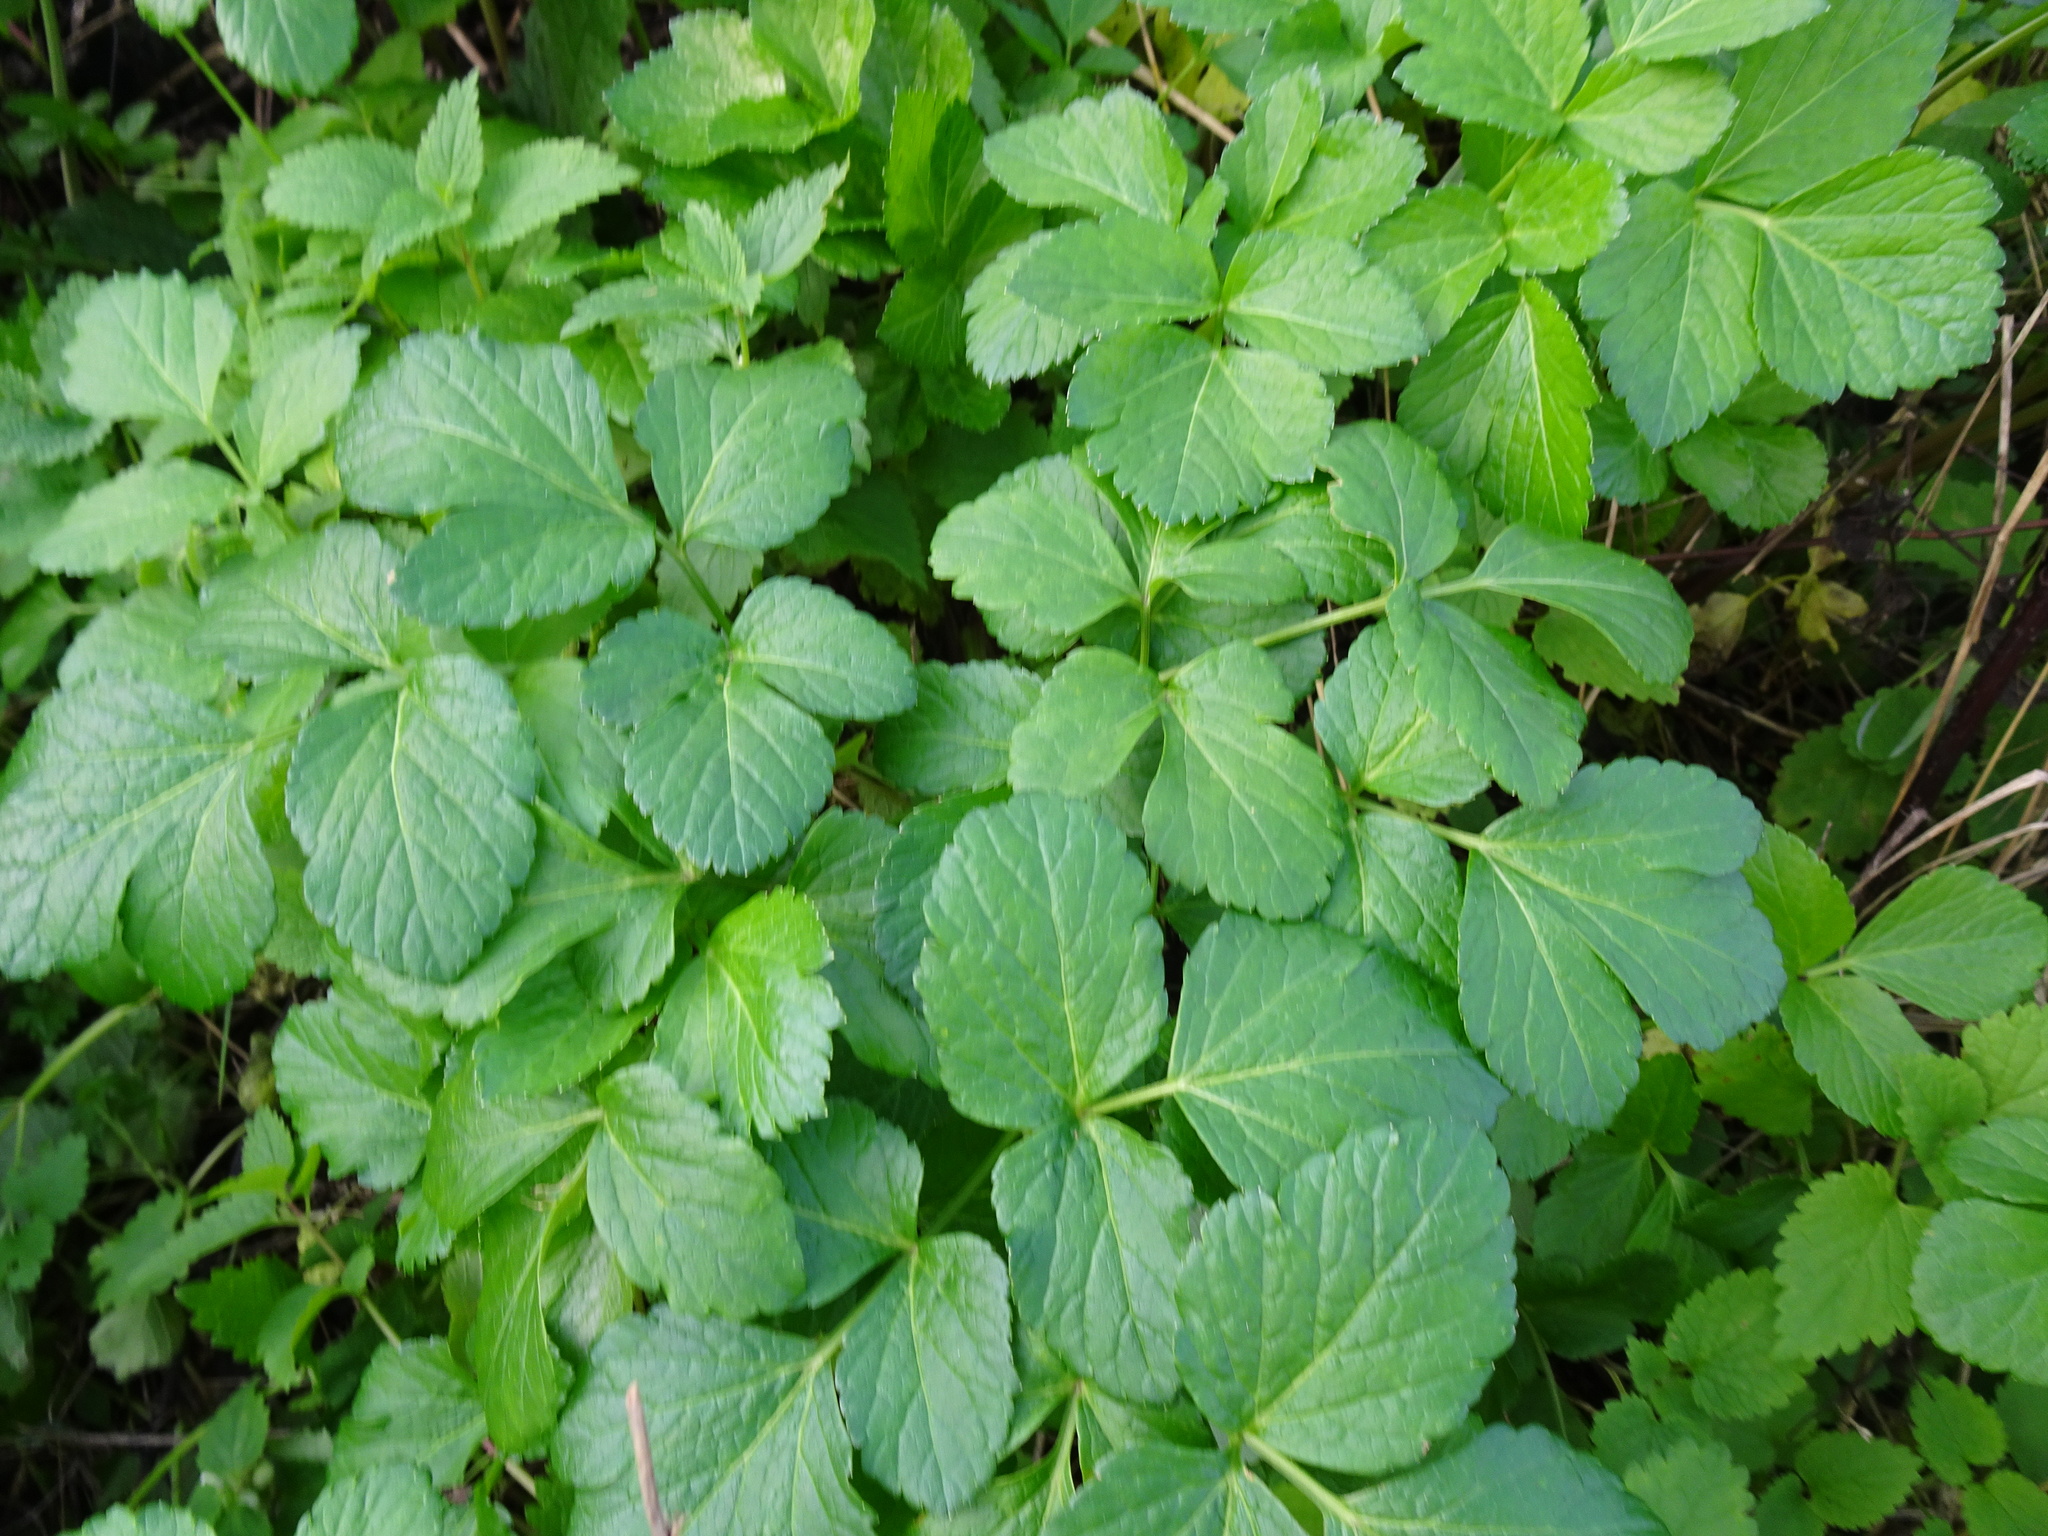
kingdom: Plantae
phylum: Tracheophyta
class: Magnoliopsida
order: Apiales
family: Apiaceae
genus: Smyrnium
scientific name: Smyrnium olusatrum
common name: Alexanders
